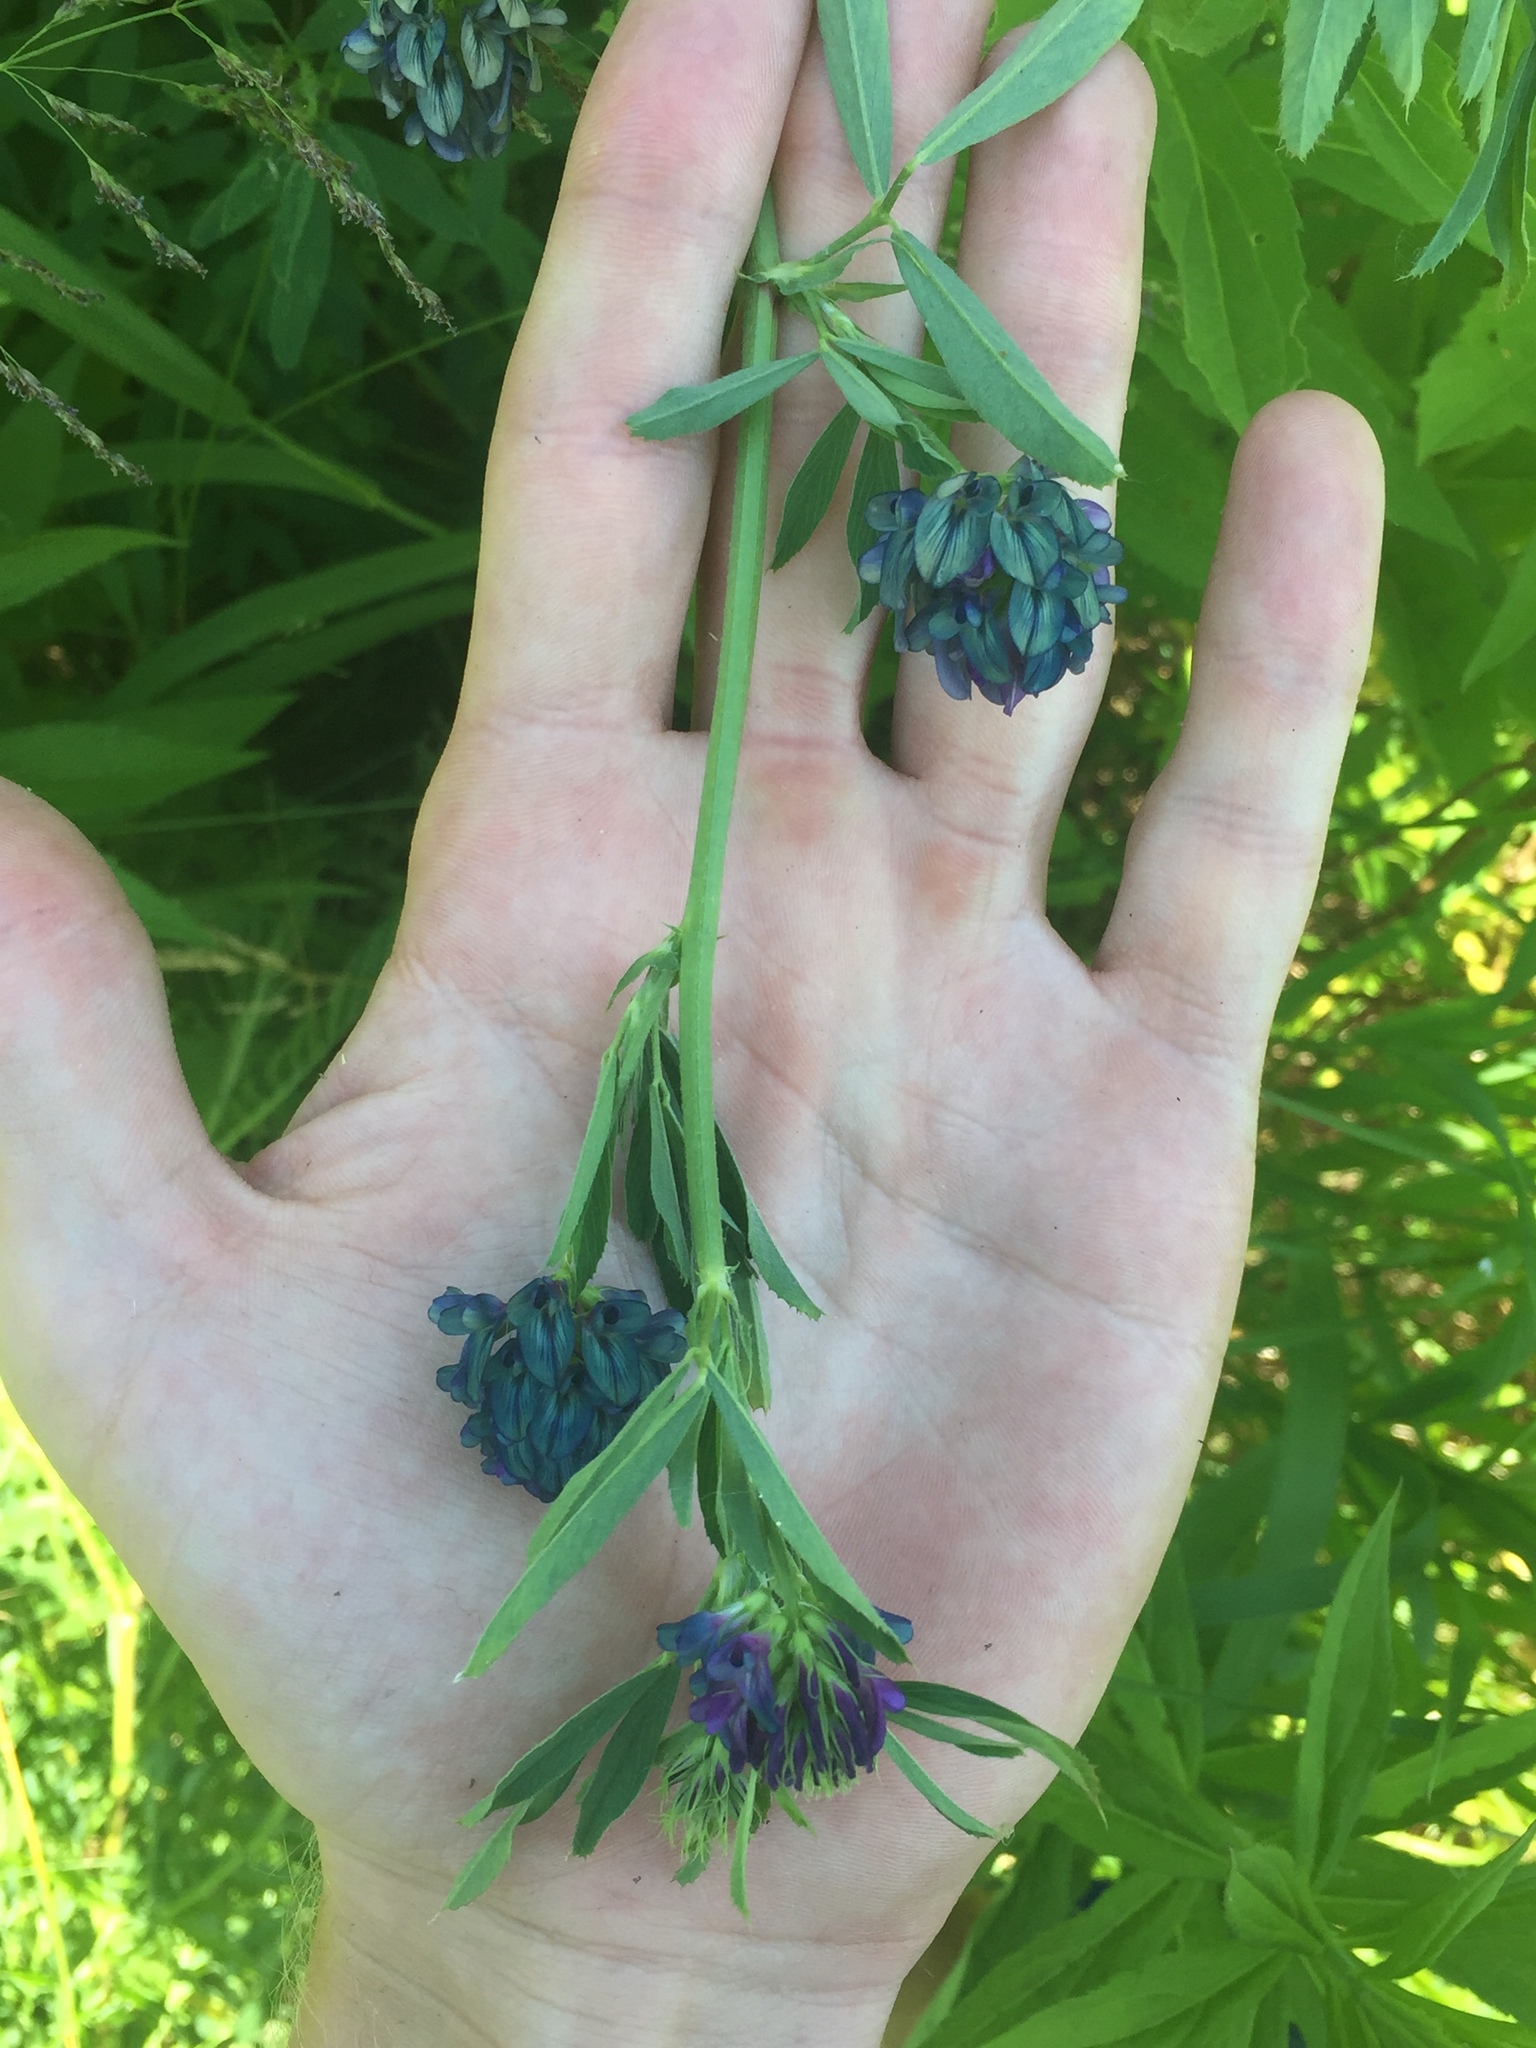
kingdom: Plantae
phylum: Tracheophyta
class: Magnoliopsida
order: Fabales
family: Fabaceae
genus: Medicago
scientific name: Medicago sativa
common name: Alfalfa
